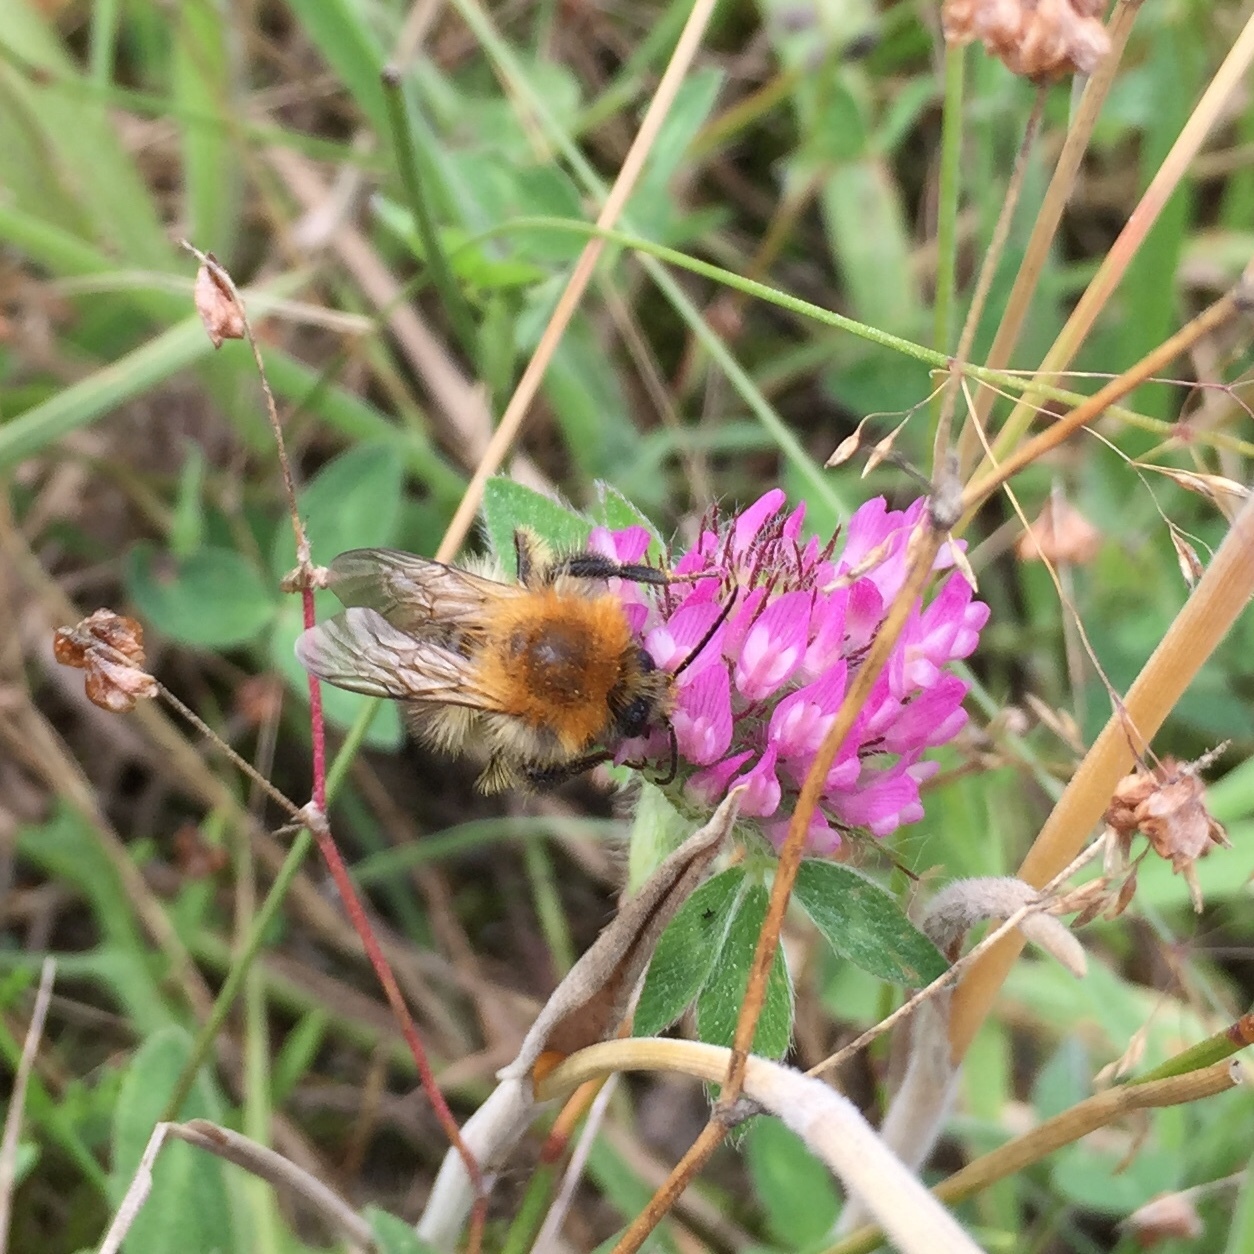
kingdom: Animalia
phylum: Arthropoda
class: Insecta
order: Hymenoptera
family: Apidae
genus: Bombus
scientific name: Bombus pascuorum
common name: Common carder bee
